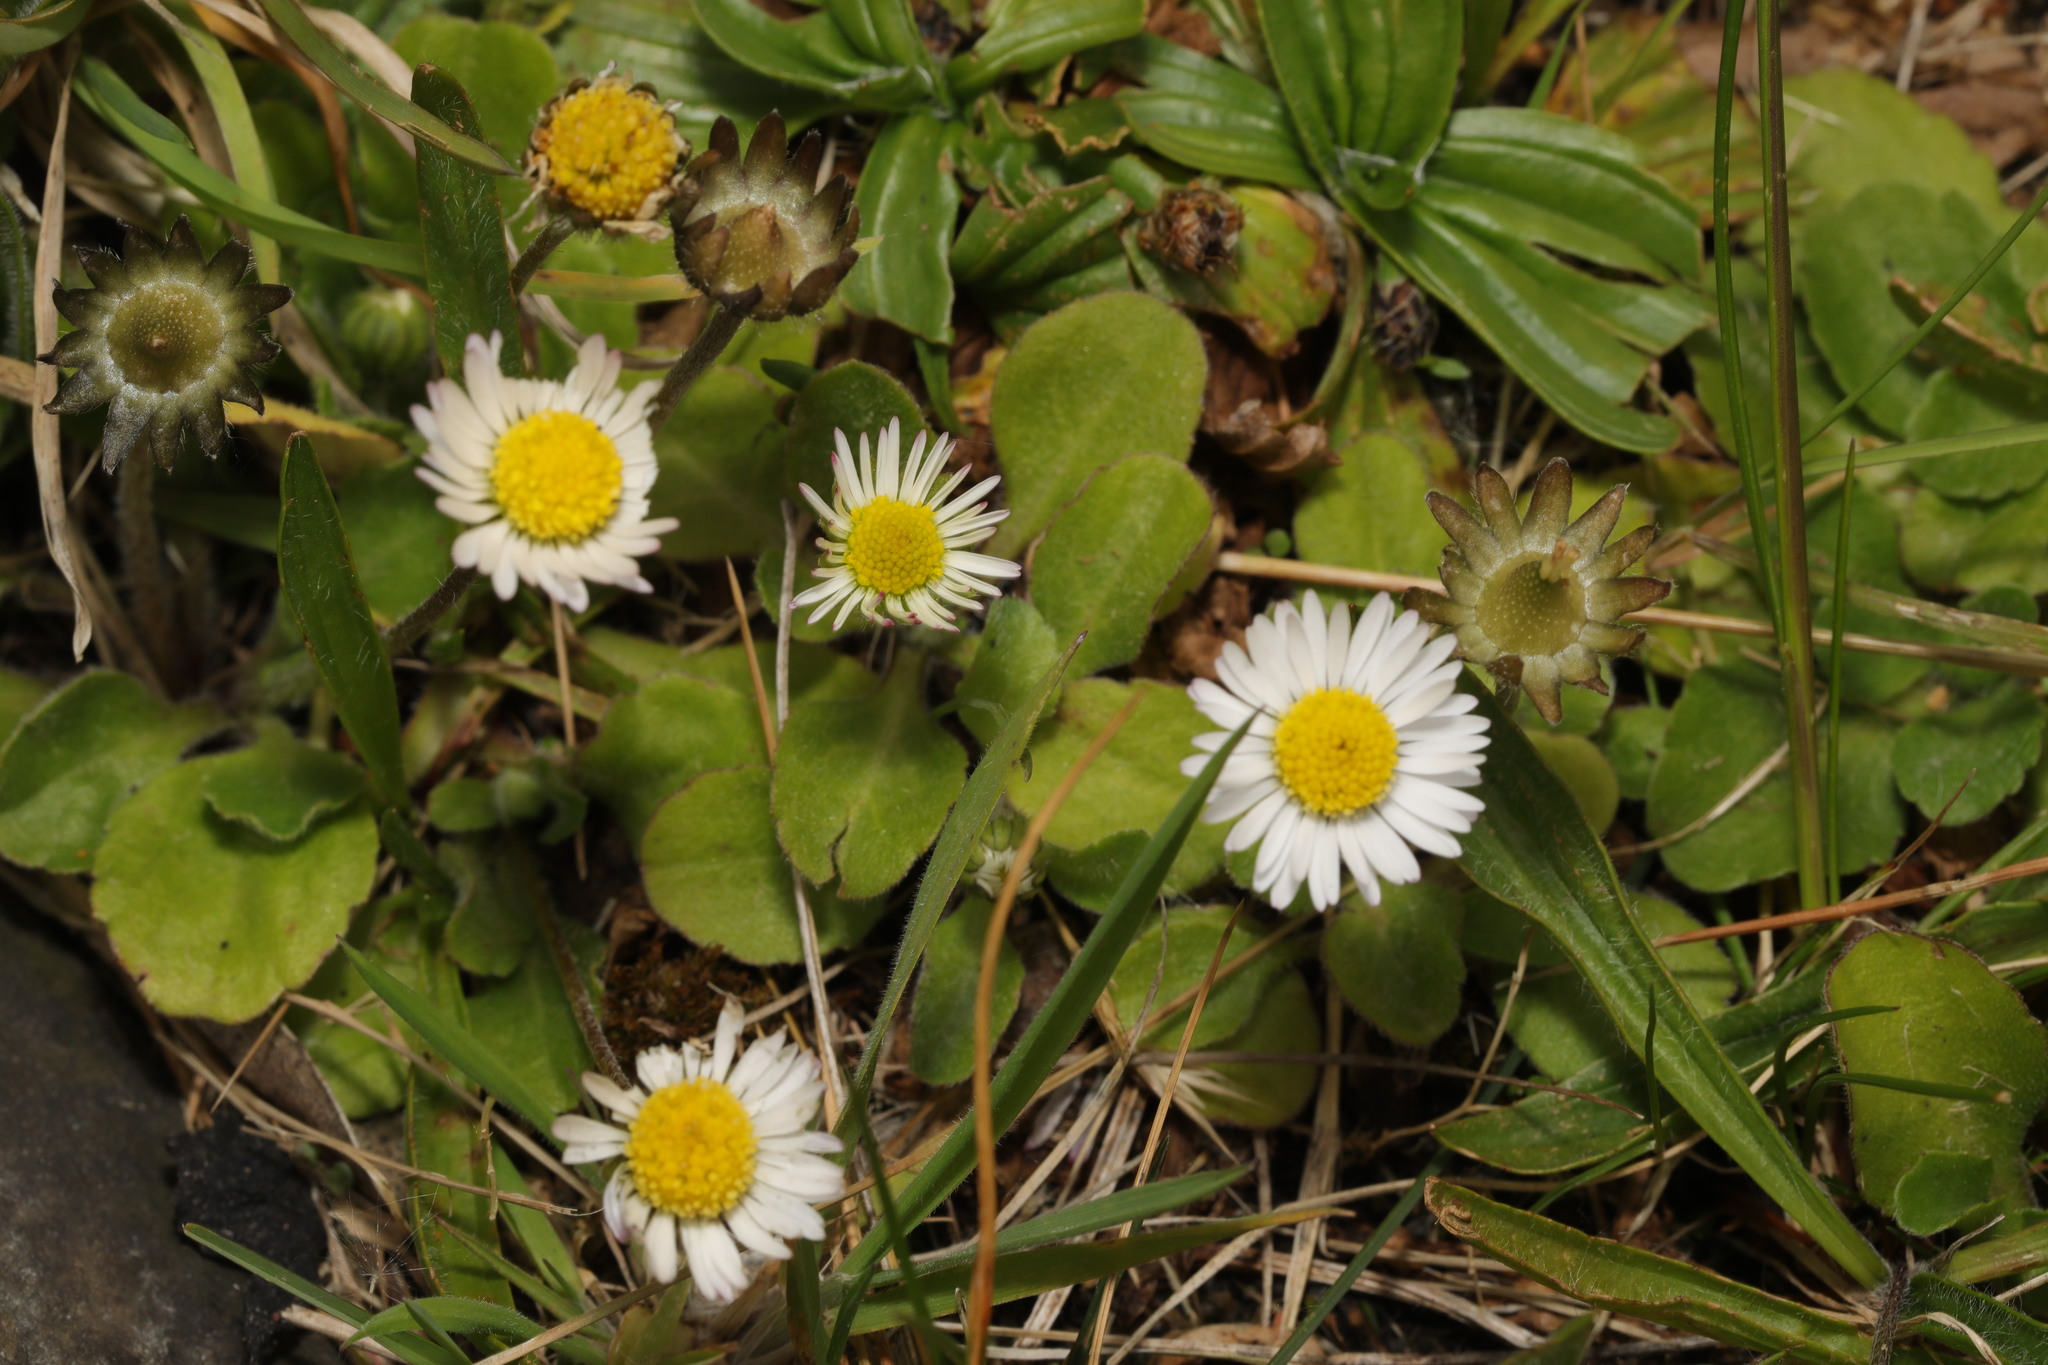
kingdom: Plantae
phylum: Tracheophyta
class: Magnoliopsida
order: Asterales
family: Asteraceae
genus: Bellis
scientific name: Bellis perennis
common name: Lawndaisy
